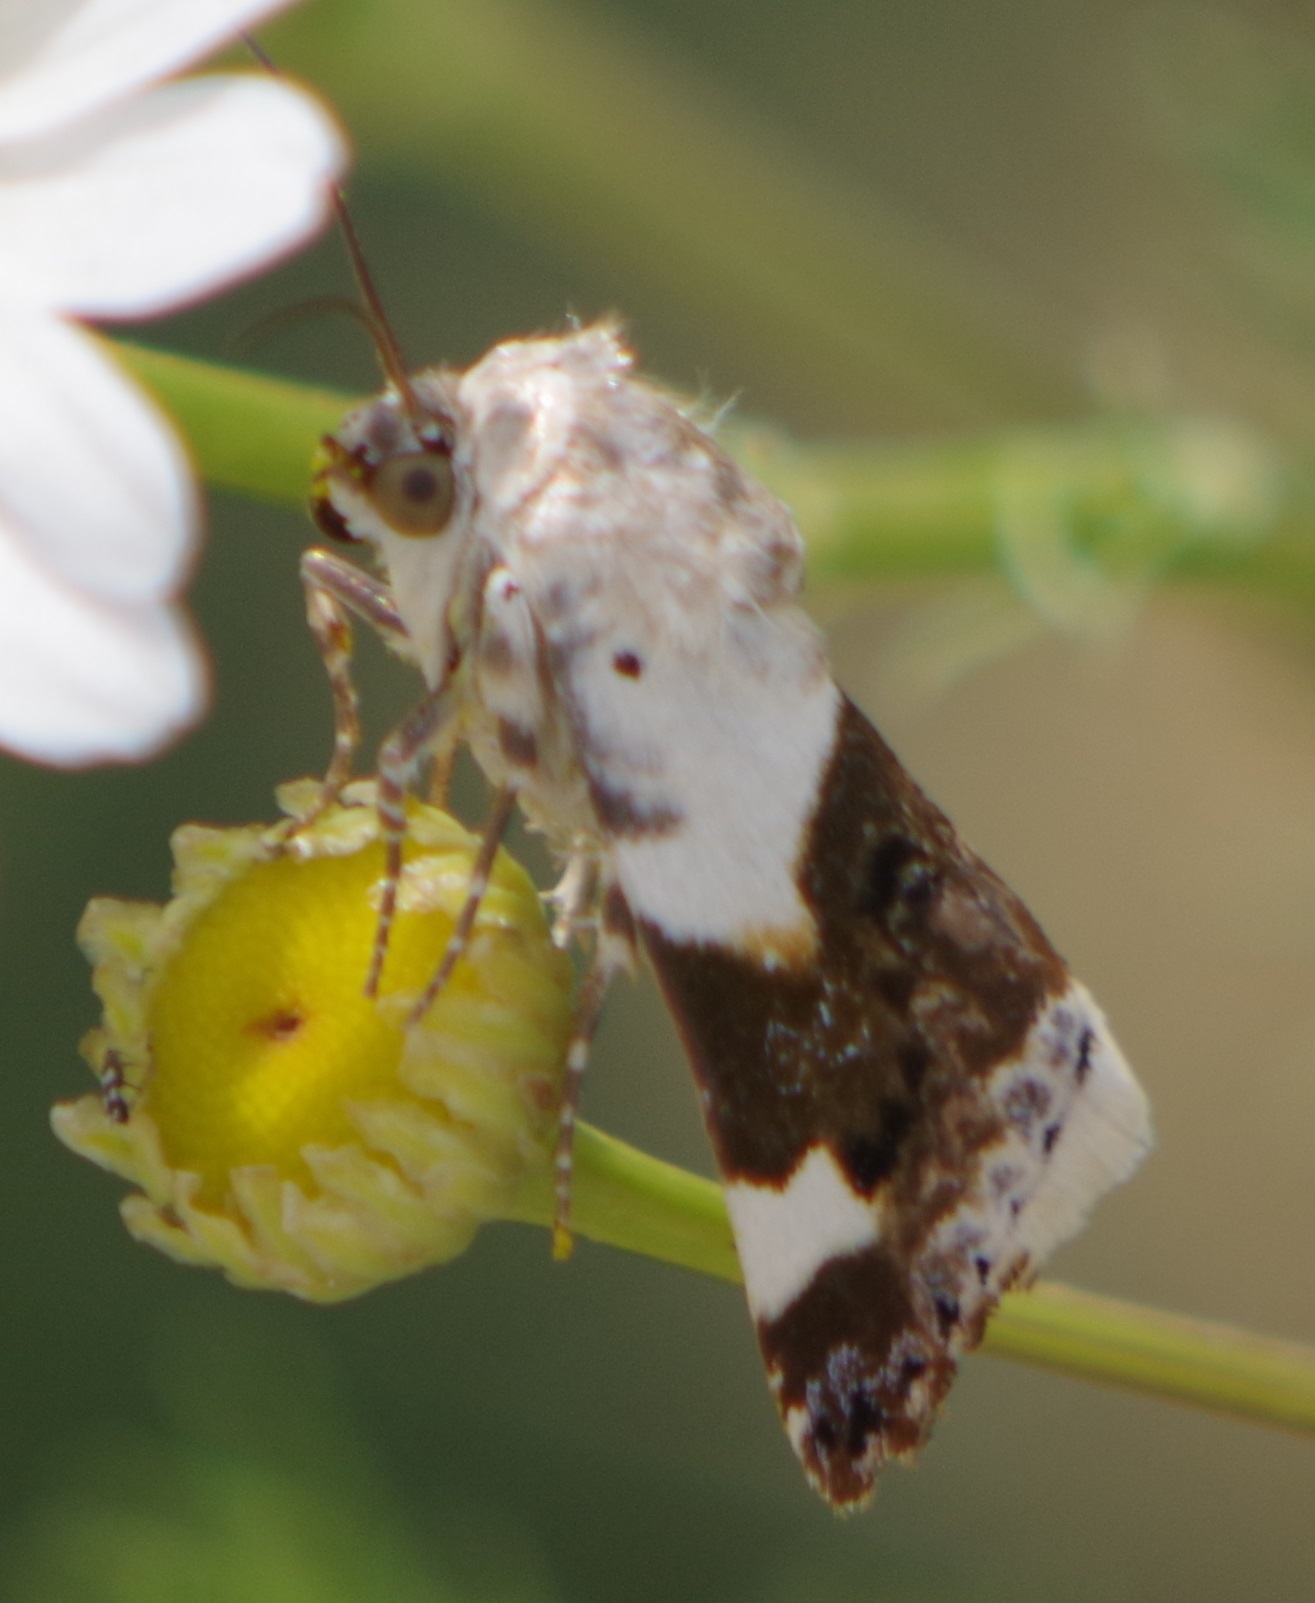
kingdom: Animalia
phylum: Arthropoda
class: Insecta
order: Lepidoptera
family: Noctuidae
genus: Acontia
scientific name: Acontia lucida
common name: Pale shoulder
